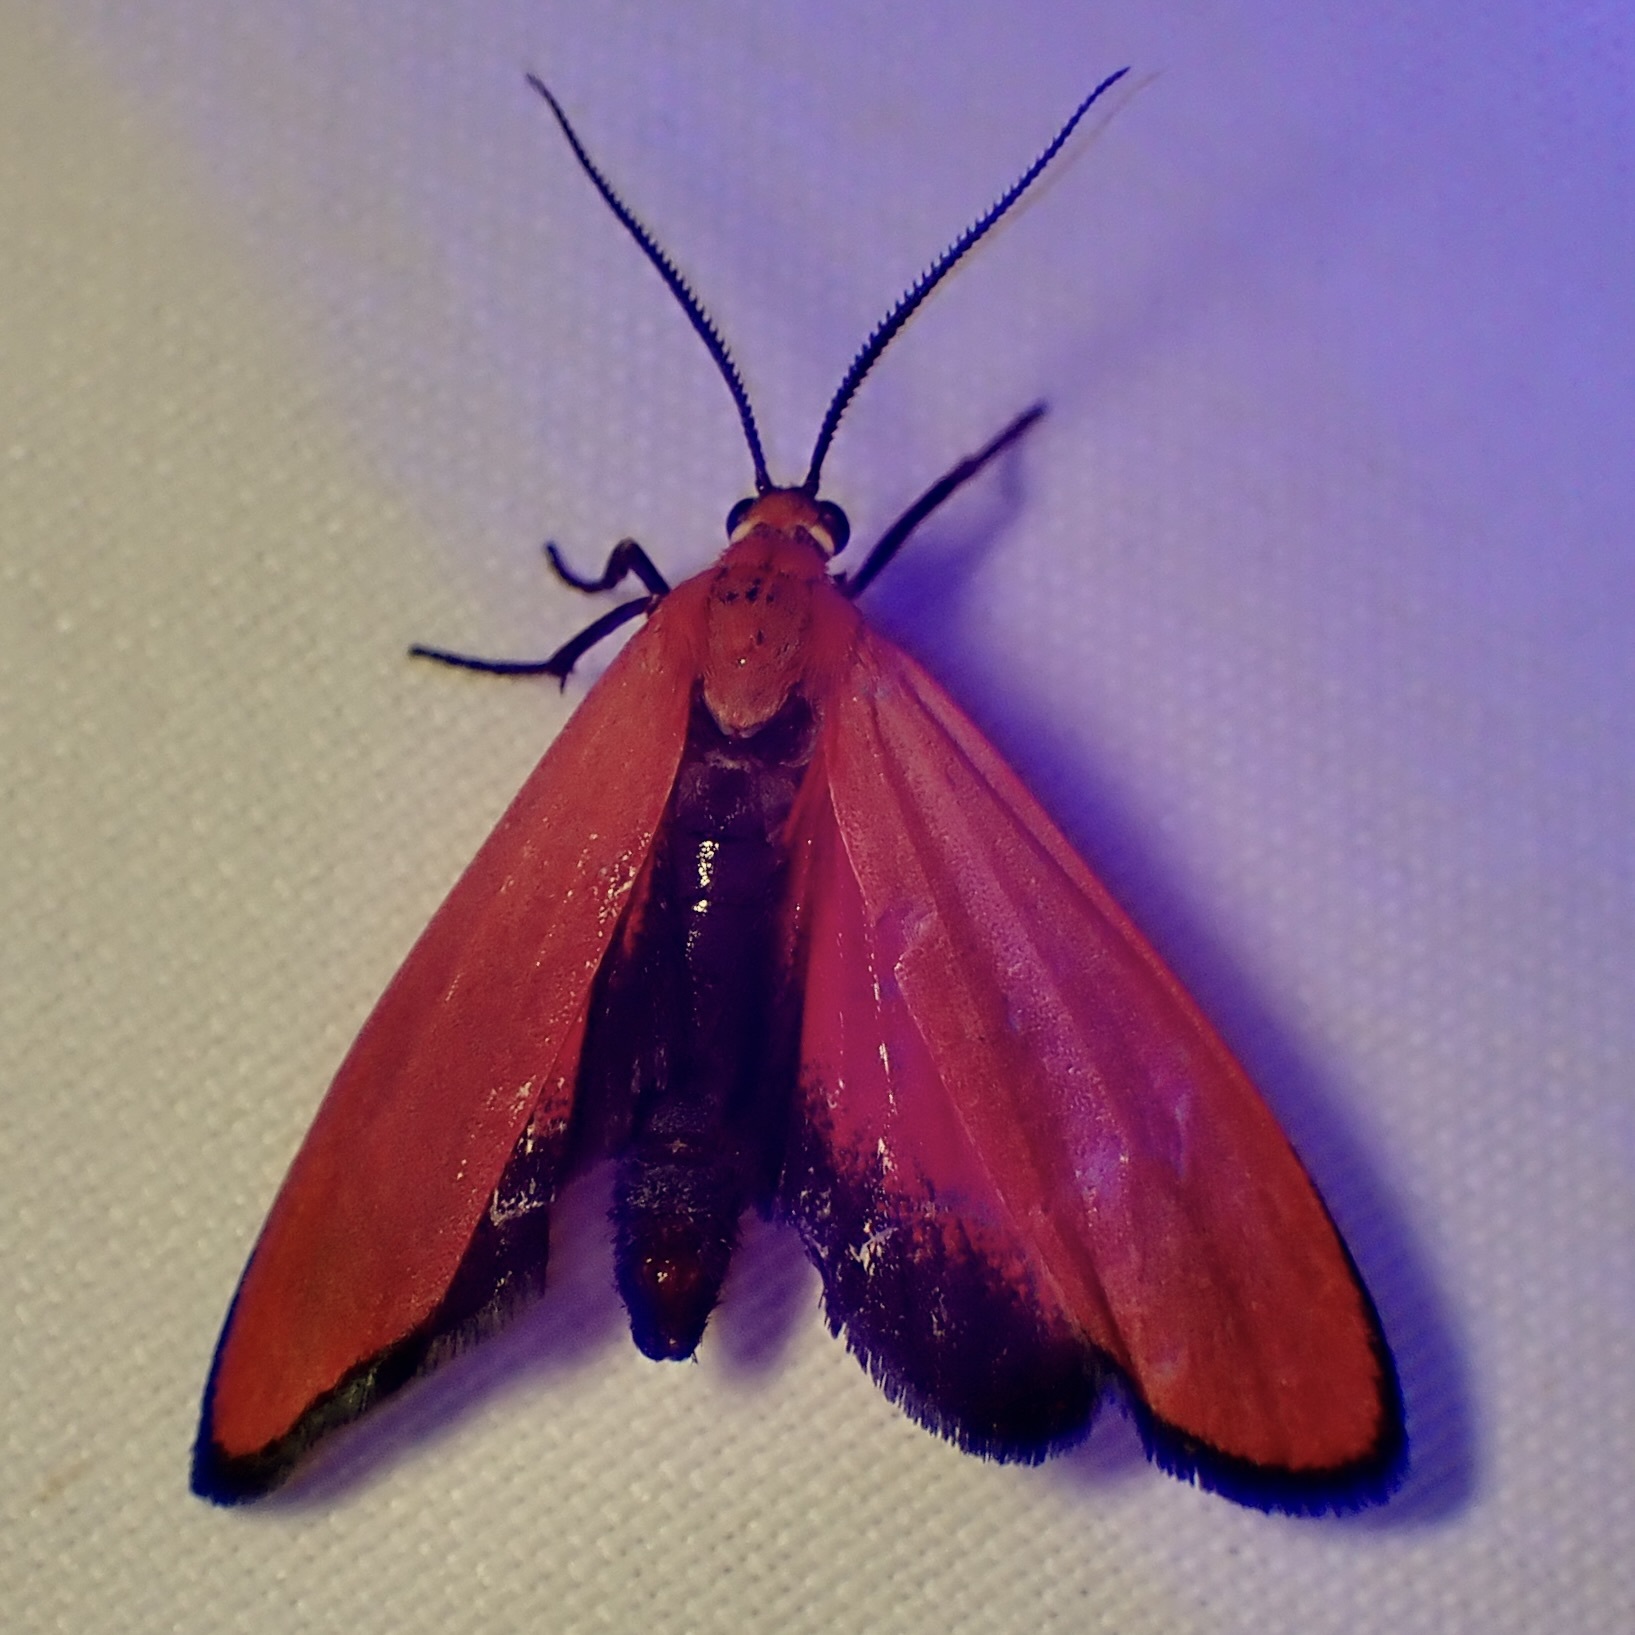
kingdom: Animalia
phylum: Arthropoda
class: Insecta
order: Lepidoptera
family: Erebidae
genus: Lycomorpha
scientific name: Lycomorpha regulus
